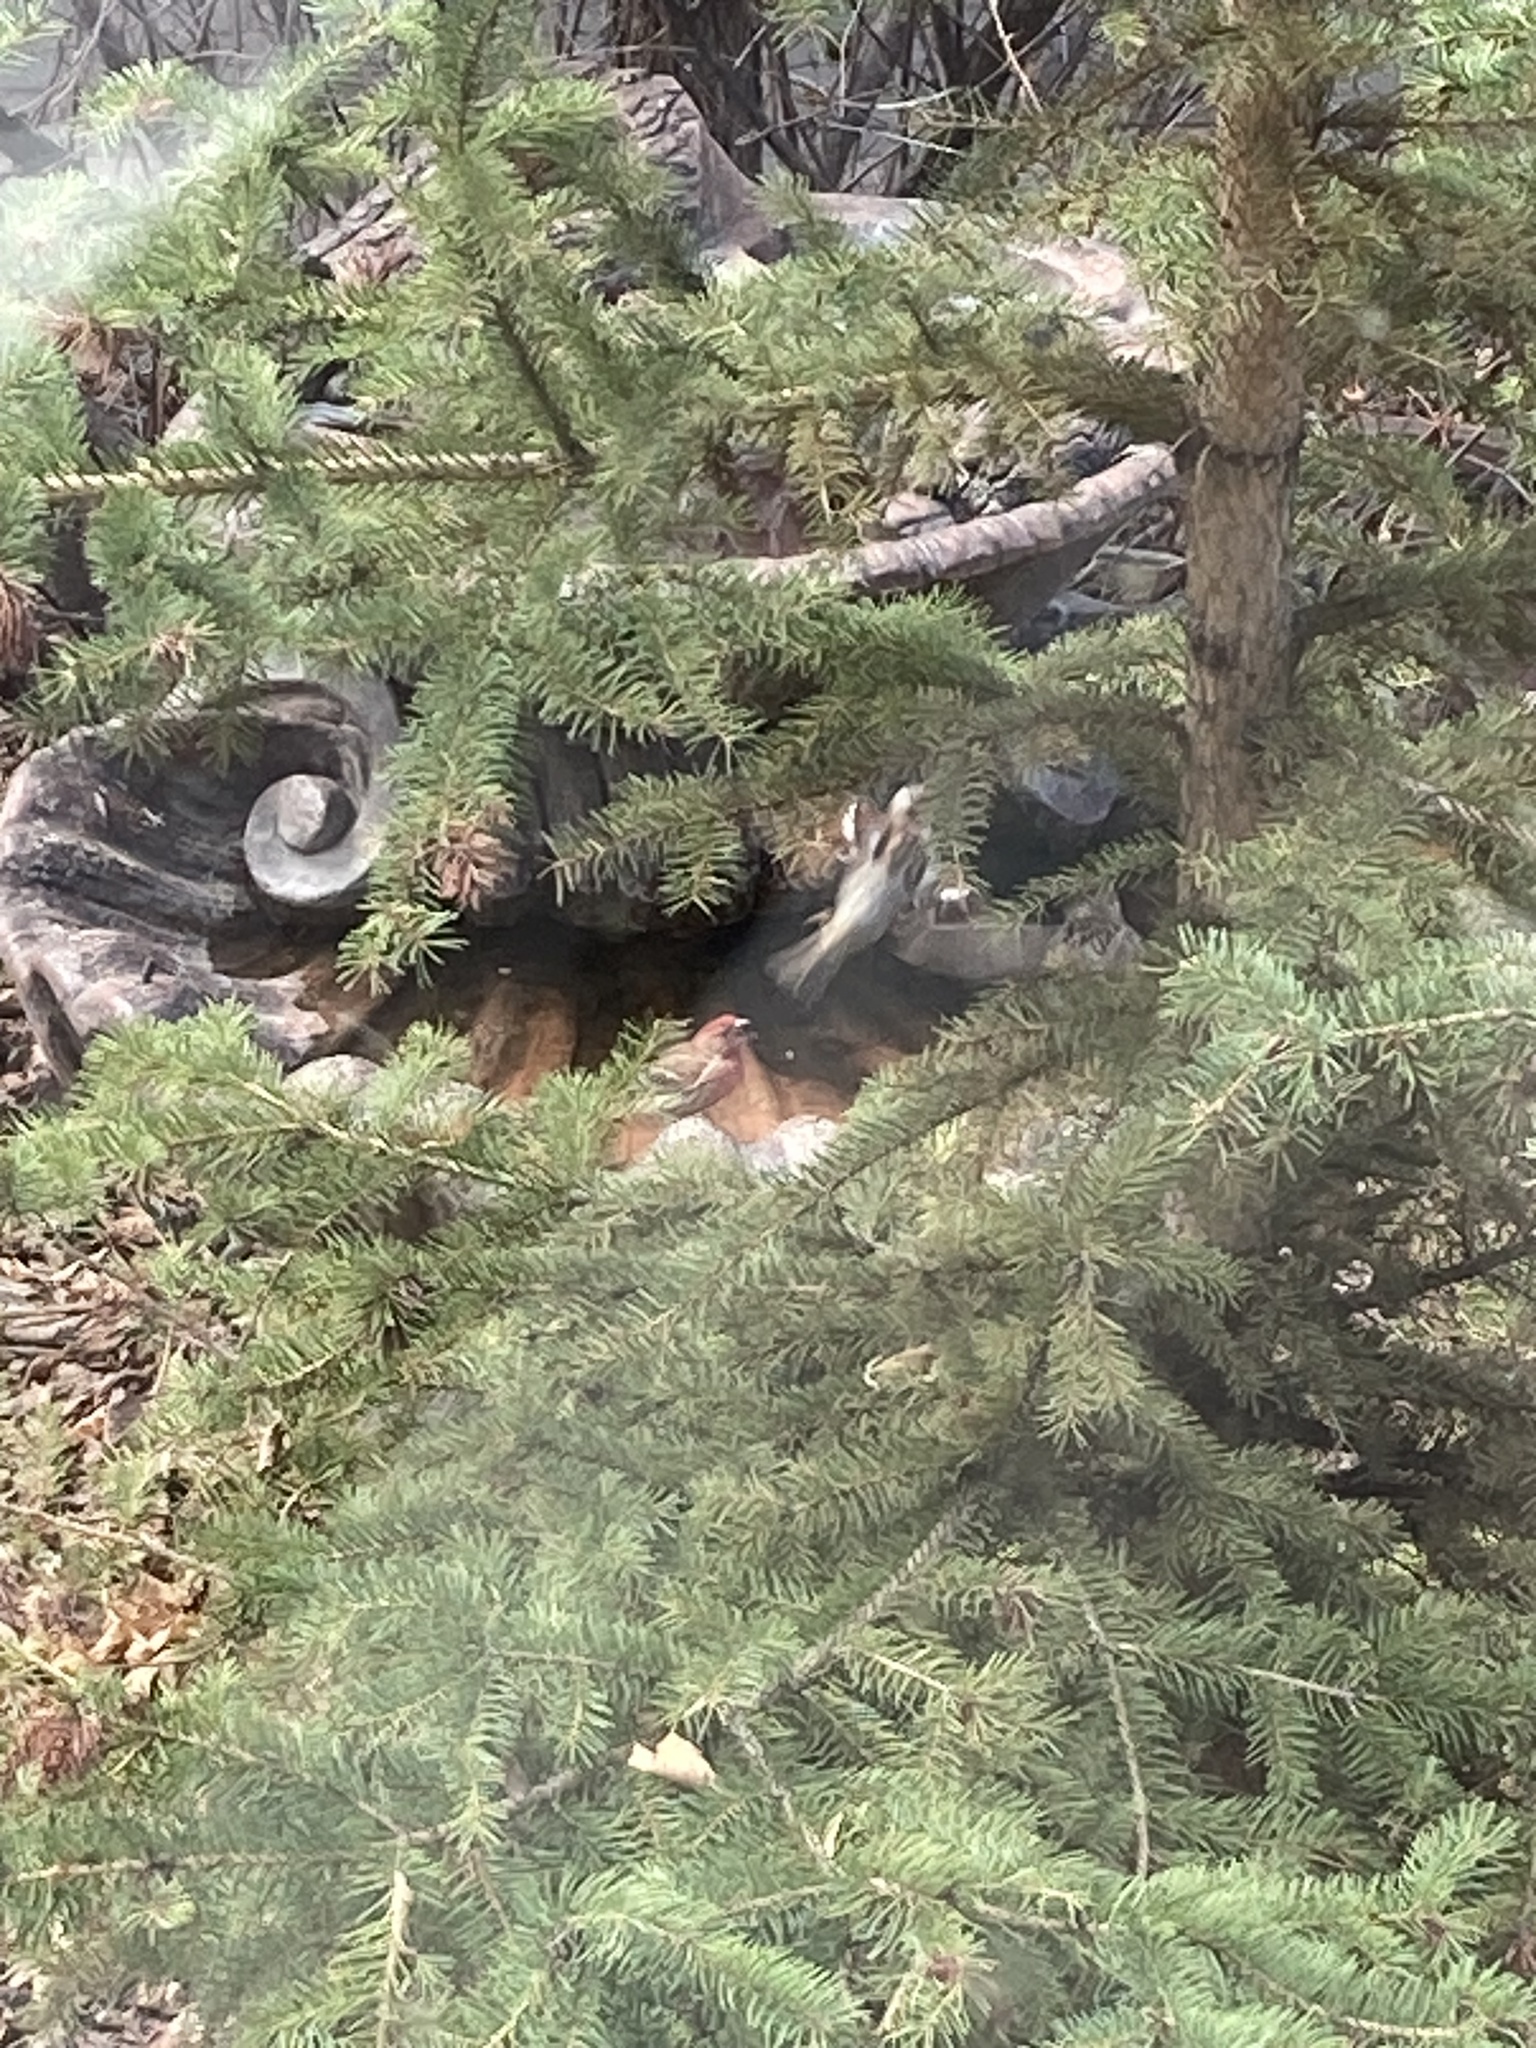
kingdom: Animalia
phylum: Chordata
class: Aves
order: Passeriformes
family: Fringillidae
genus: Haemorhous
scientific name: Haemorhous mexicanus
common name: House finch
